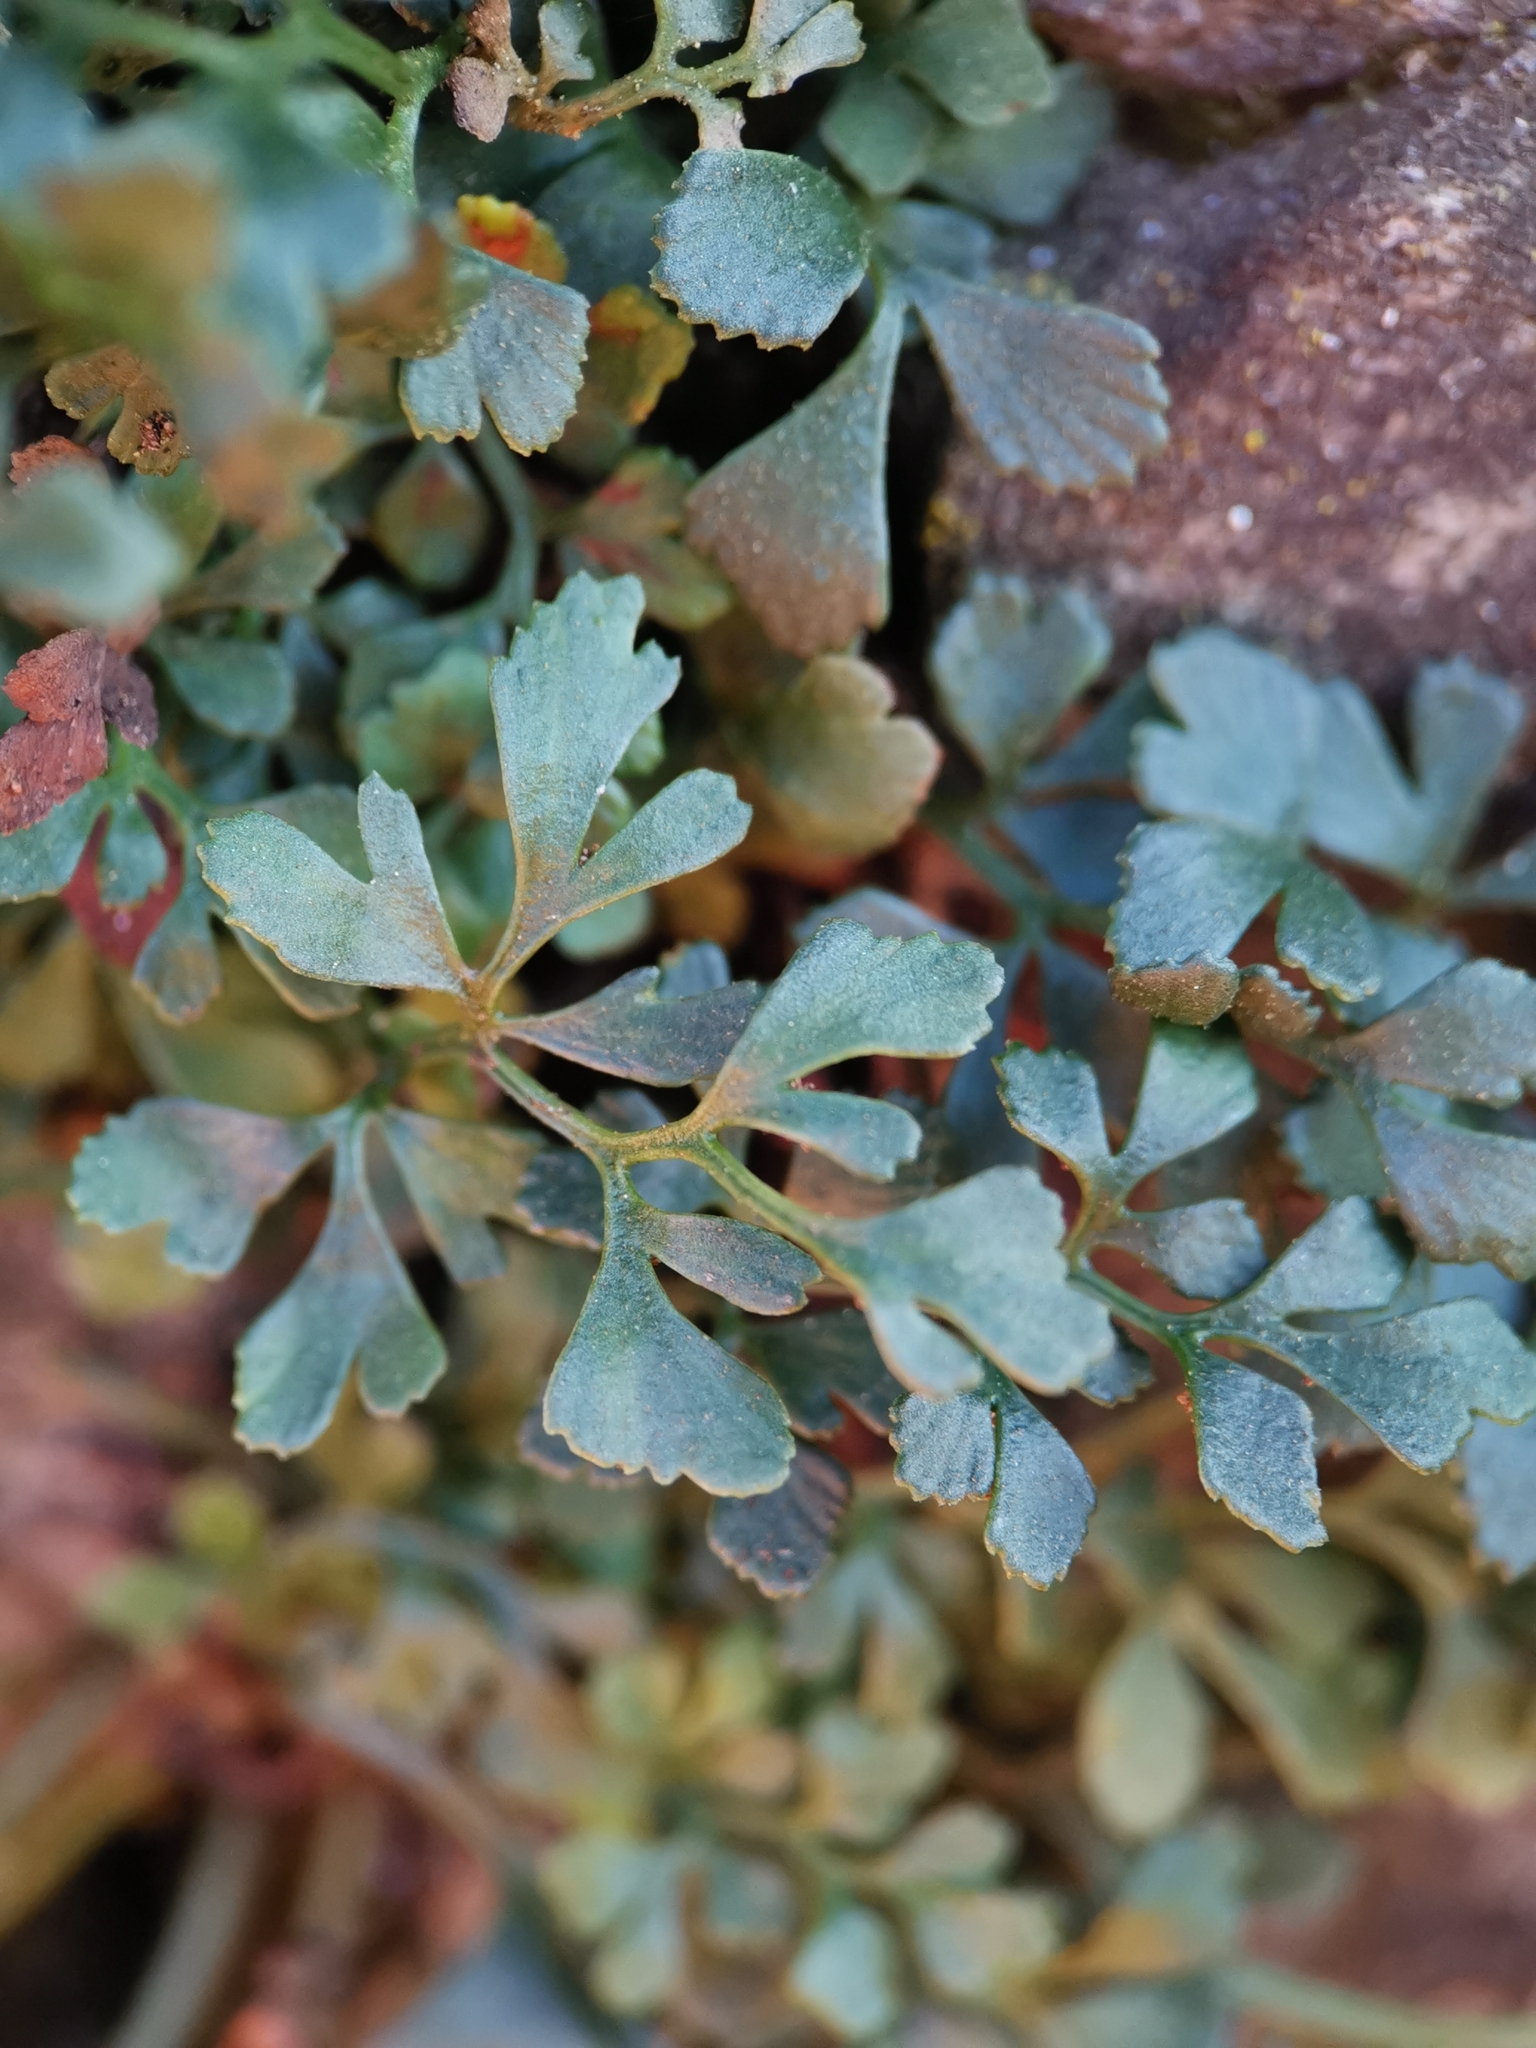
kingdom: Plantae
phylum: Tracheophyta
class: Polypodiopsida
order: Polypodiales
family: Aspleniaceae
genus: Asplenium
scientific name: Asplenium ruta-muraria
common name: Wall-rue
